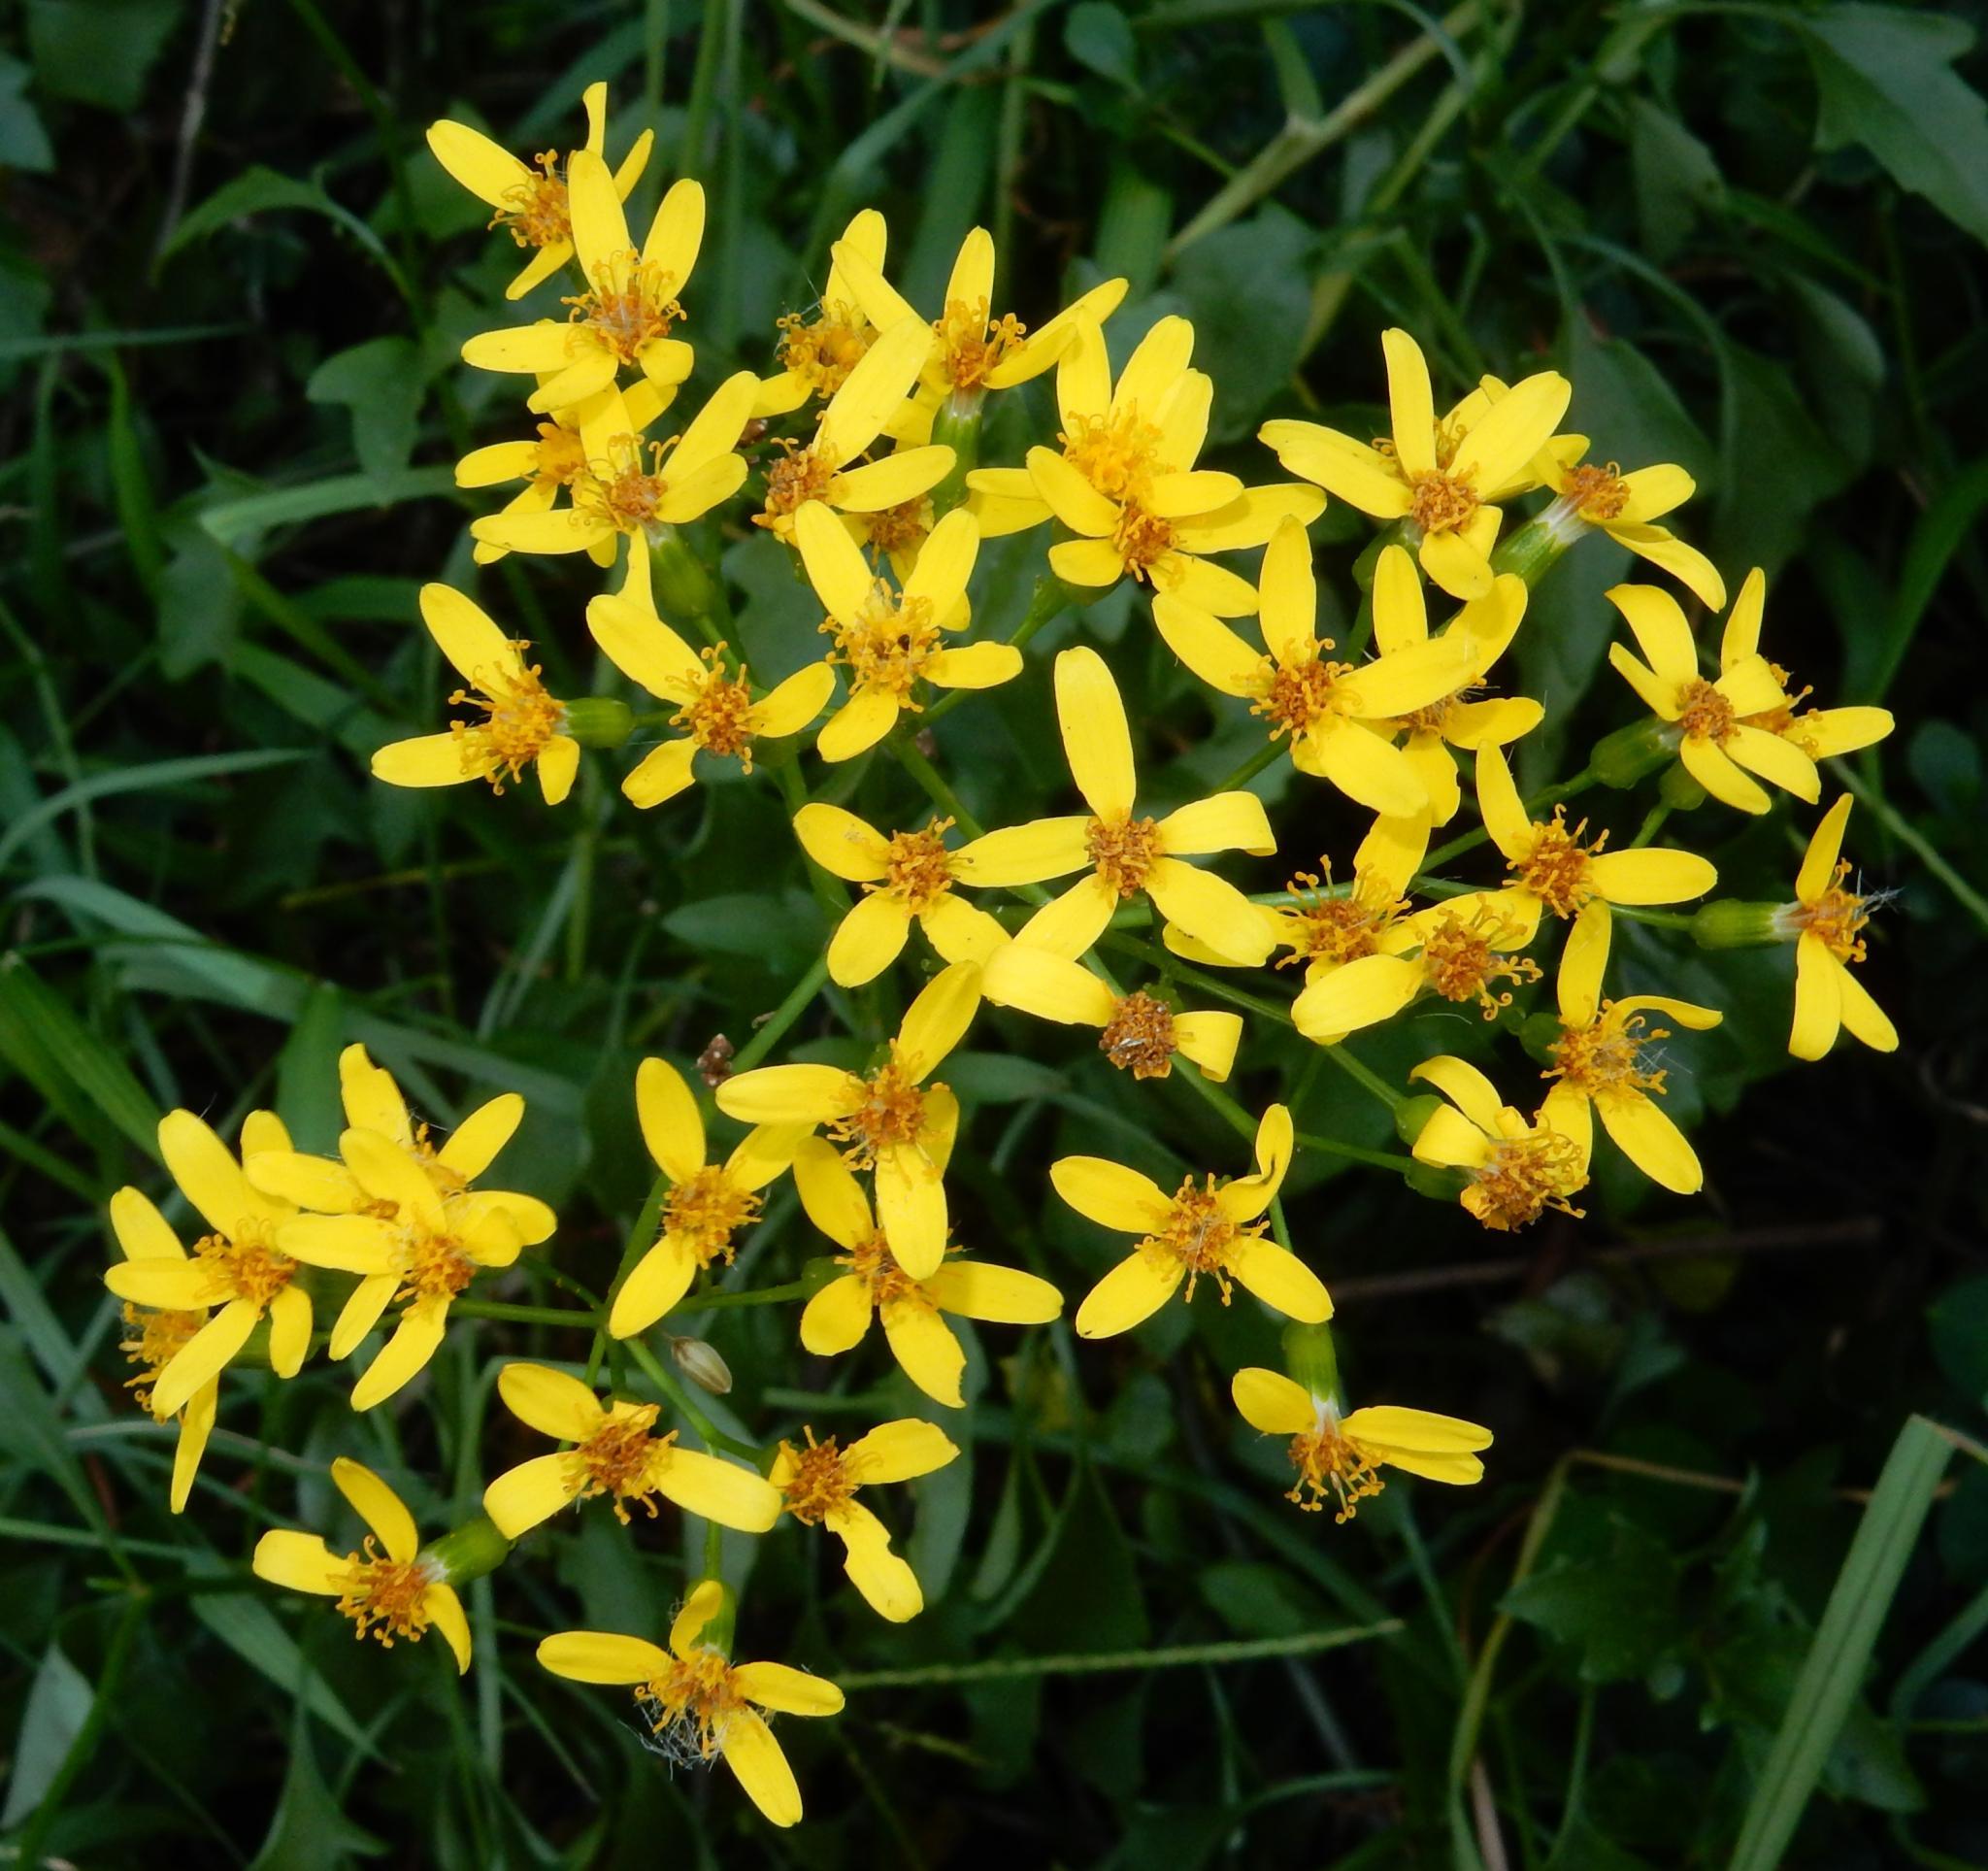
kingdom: Plantae
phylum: Tracheophyta
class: Magnoliopsida
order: Asterales
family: Asteraceae
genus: Senecio
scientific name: Senecio angulatus
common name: Climbing groundsel
